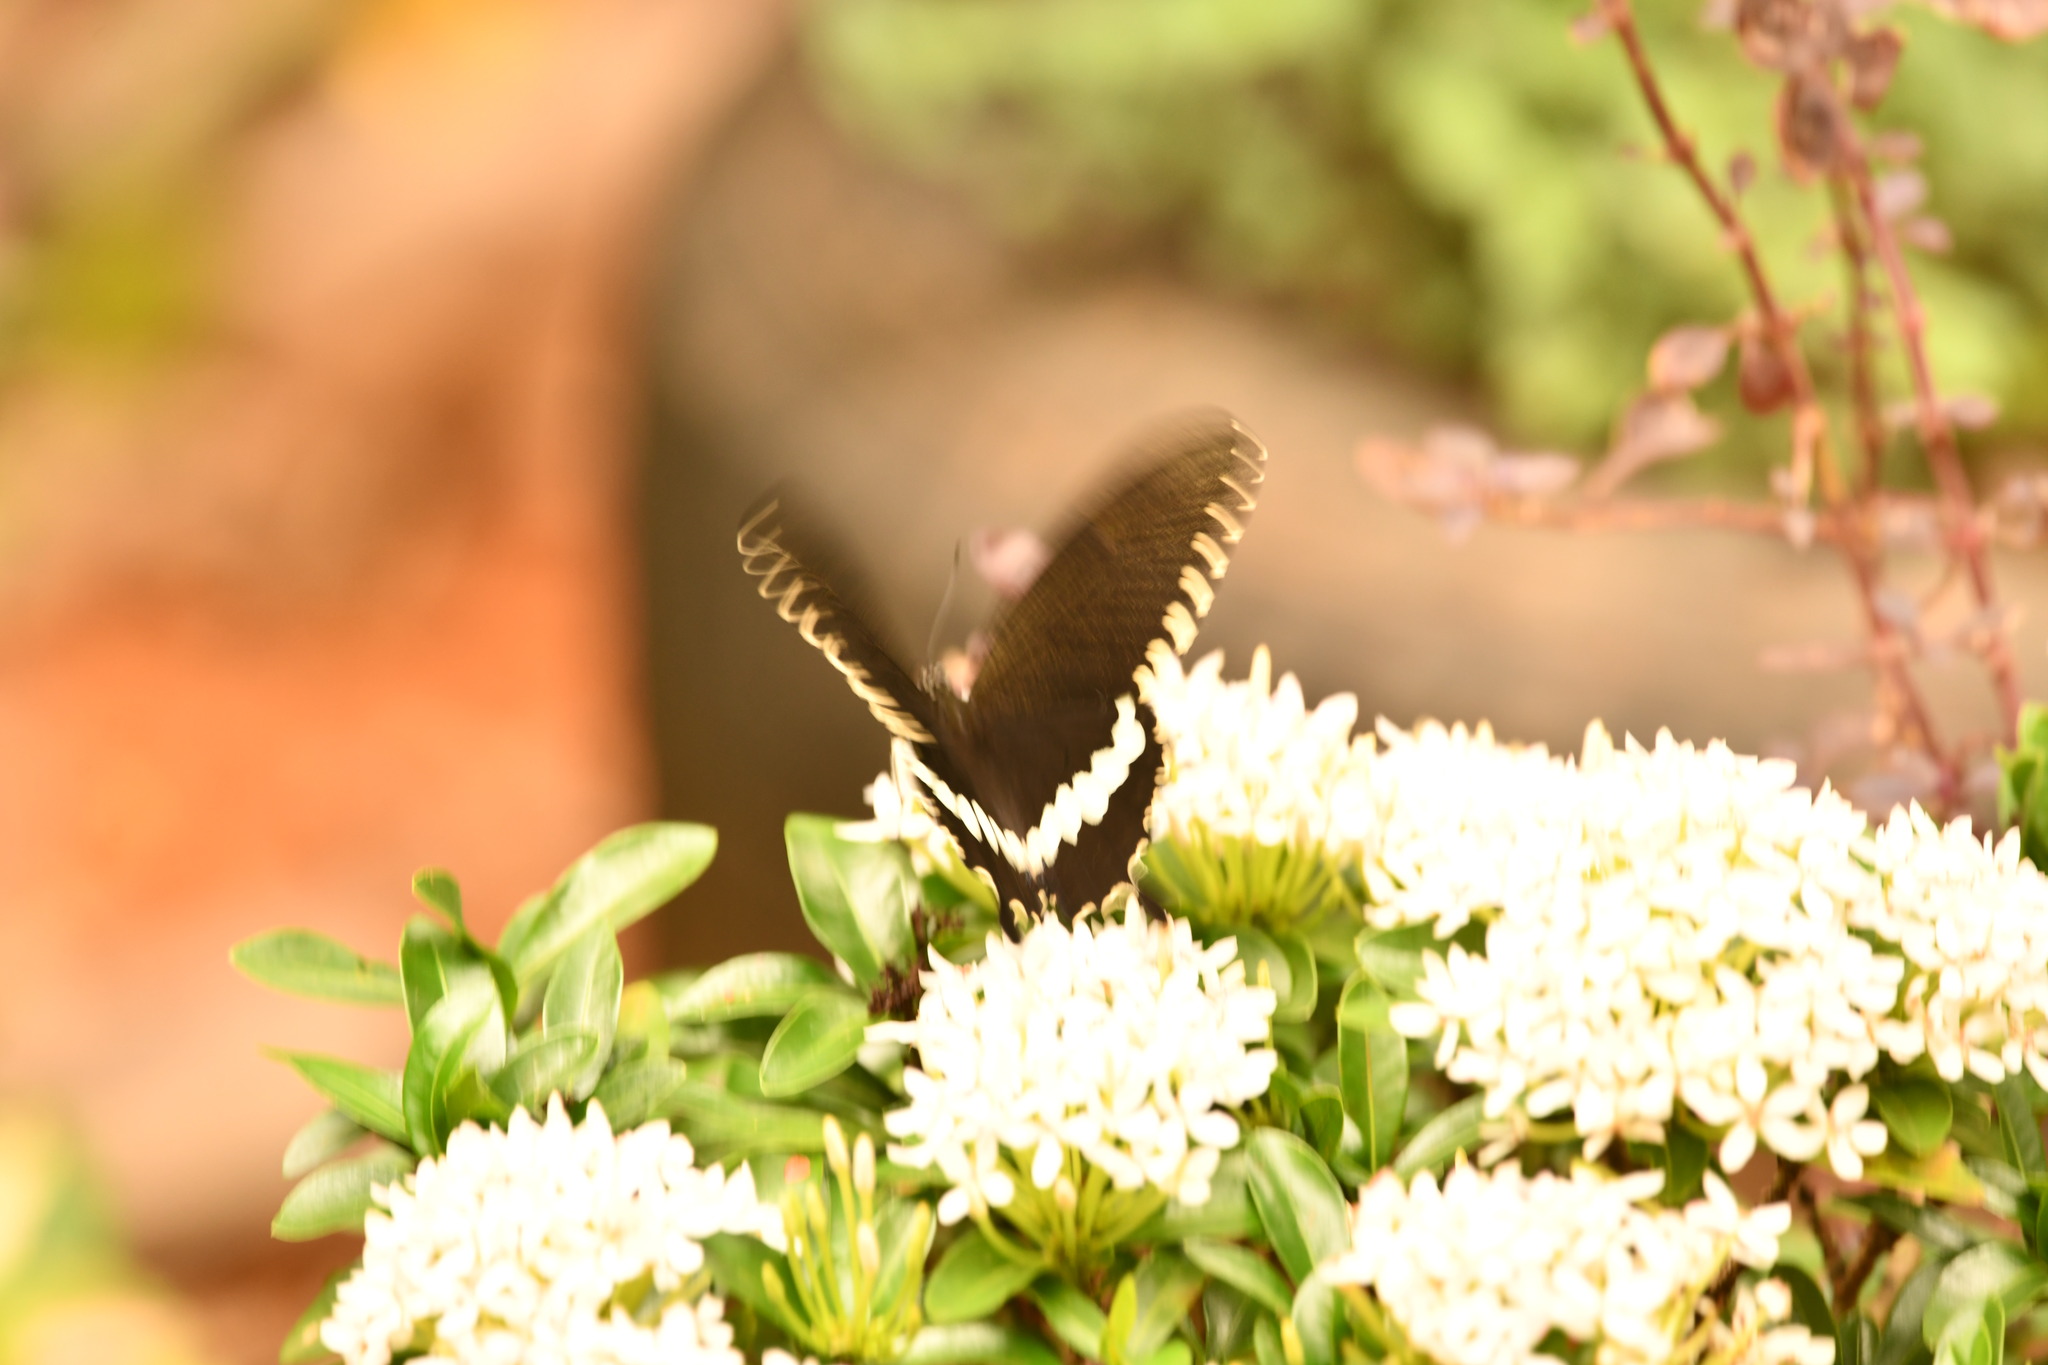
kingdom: Animalia
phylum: Arthropoda
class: Insecta
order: Lepidoptera
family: Papilionidae
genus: Papilio
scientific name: Papilio polytes
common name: Common mormon
